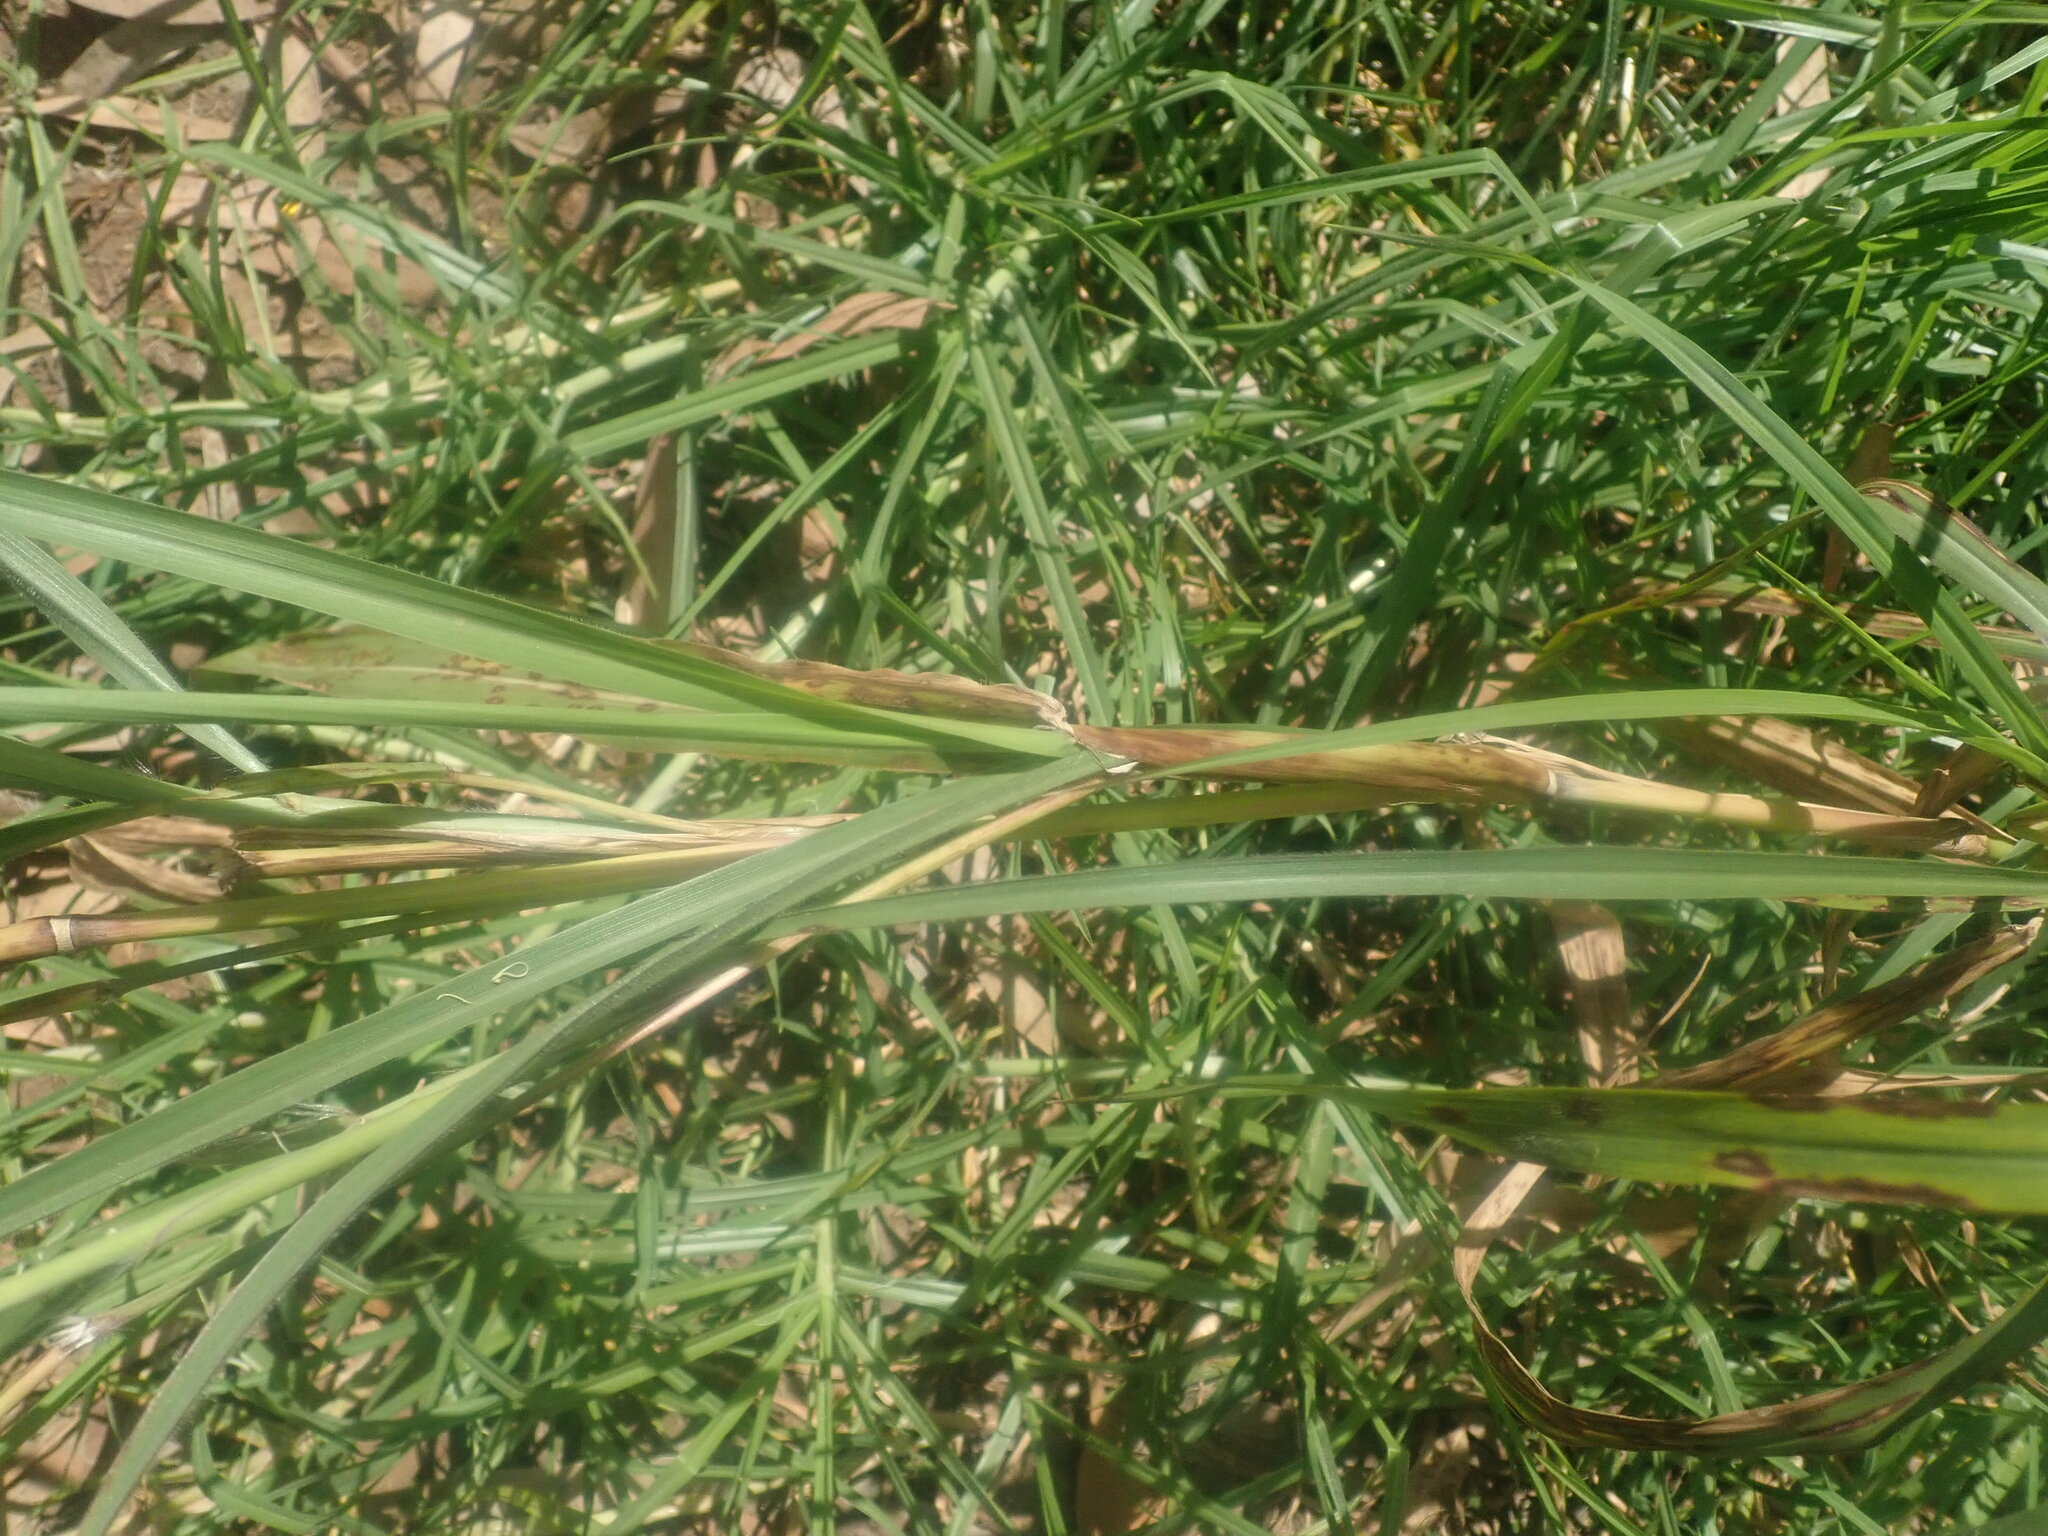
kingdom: Plantae
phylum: Tracheophyta
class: Liliopsida
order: Poales
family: Poaceae
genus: Cenchrus
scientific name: Cenchrus ciliaris
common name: Buffelgrass
